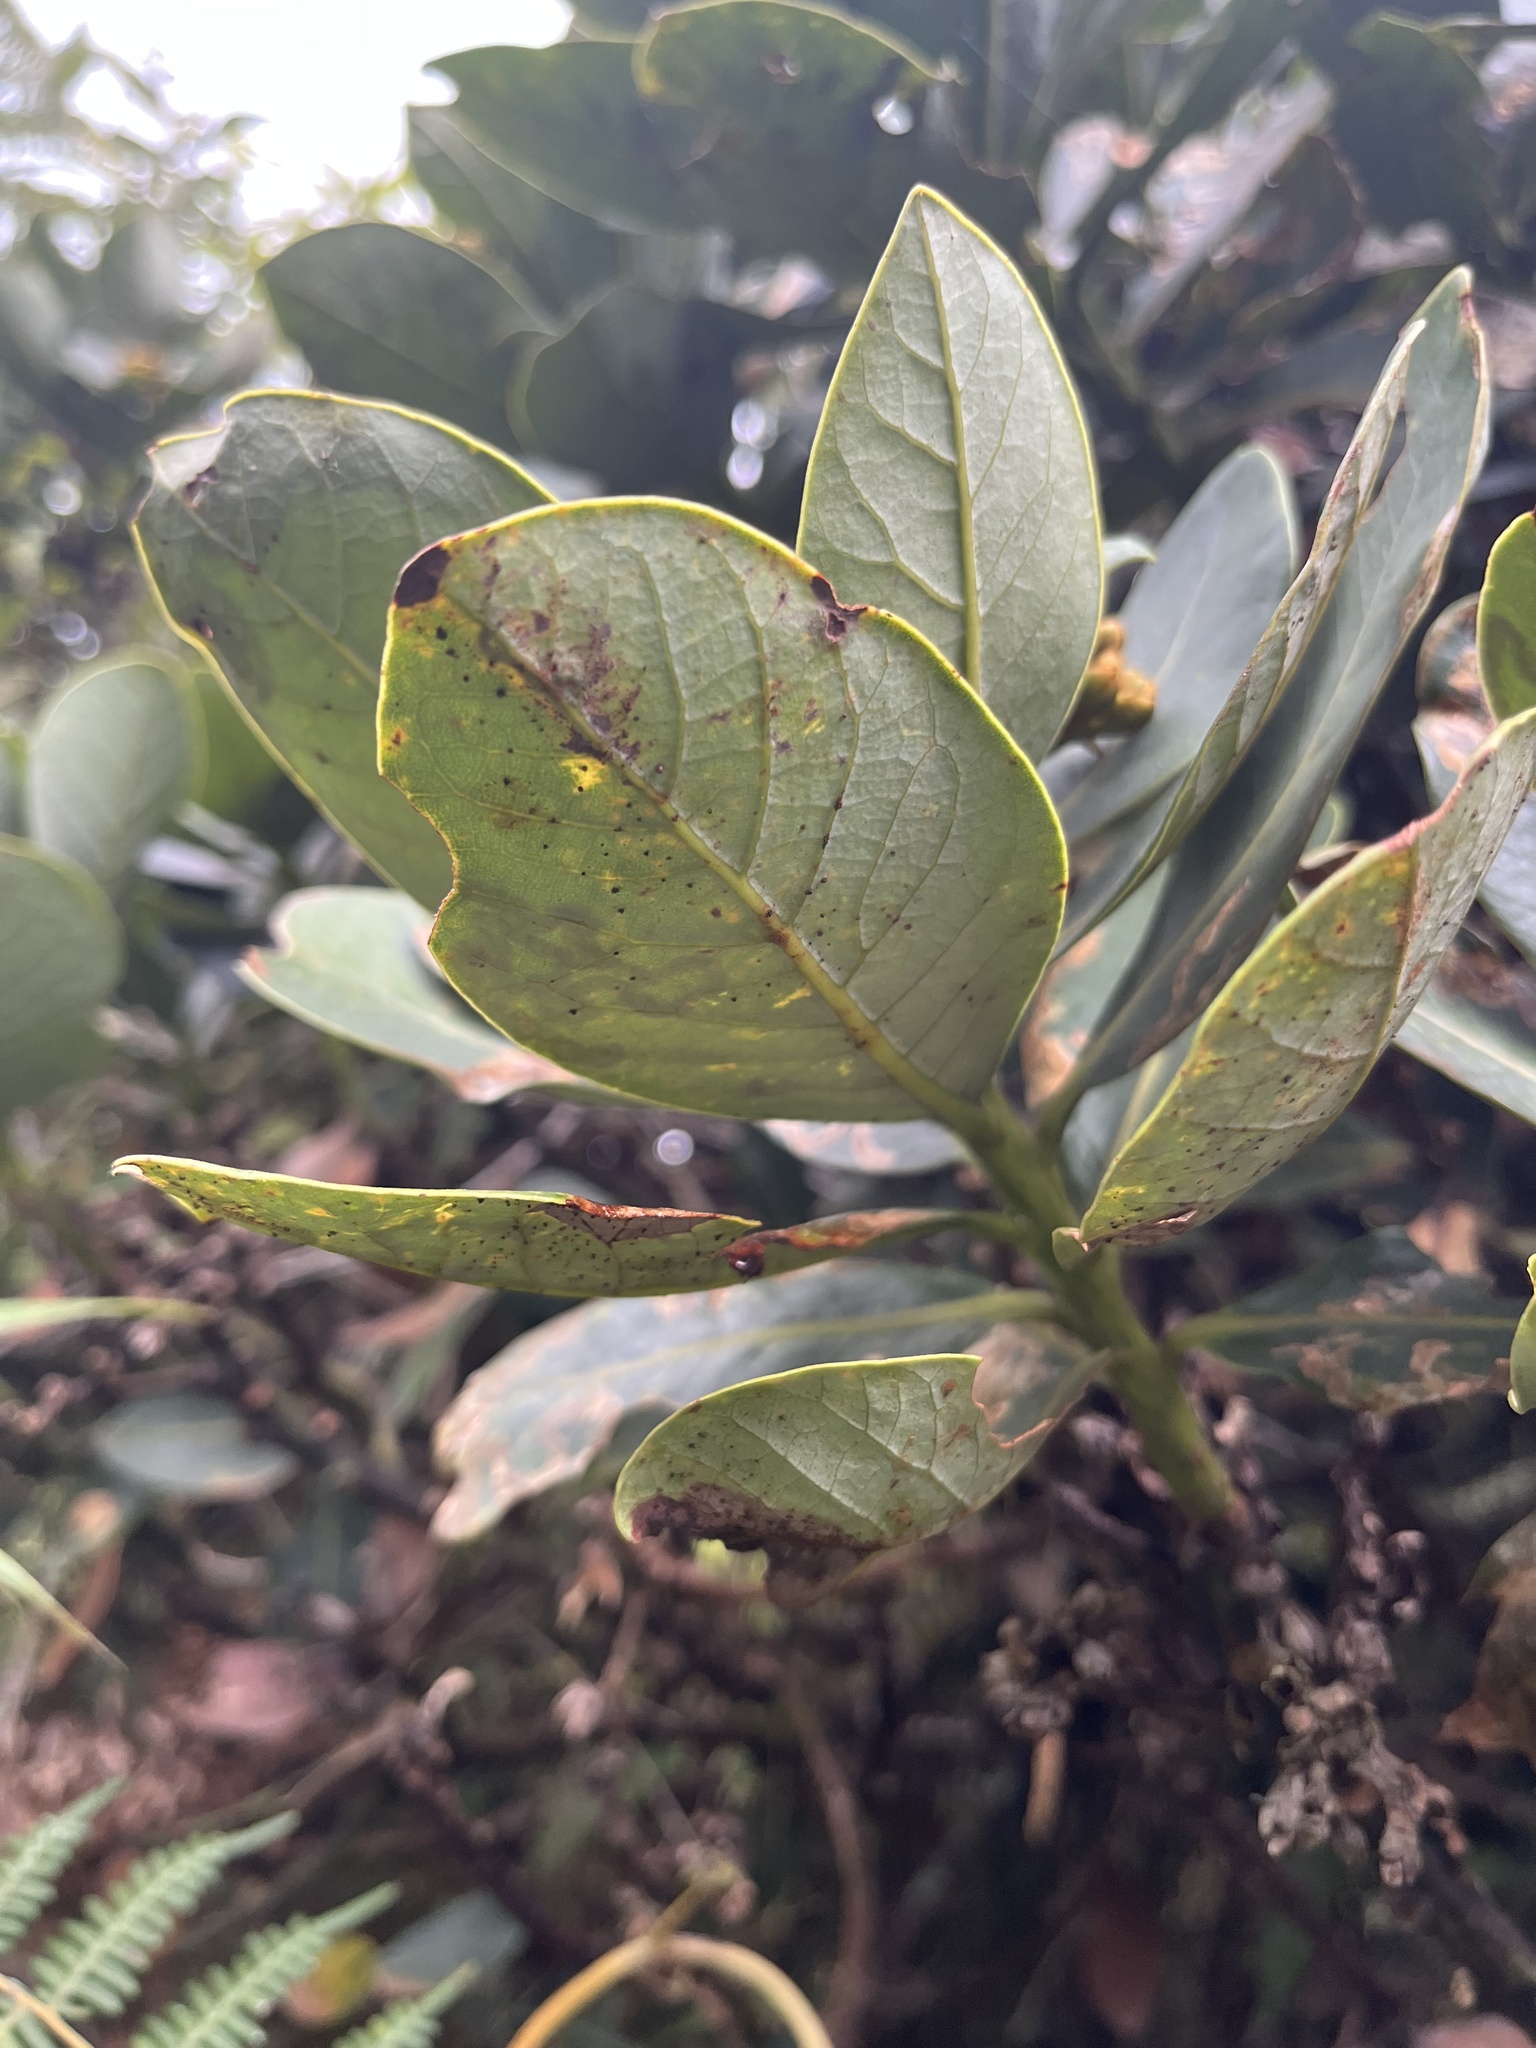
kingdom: Plantae
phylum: Tracheophyta
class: Magnoliopsida
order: Laurales
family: Lauraceae
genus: Persea
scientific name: Persea mutisii
